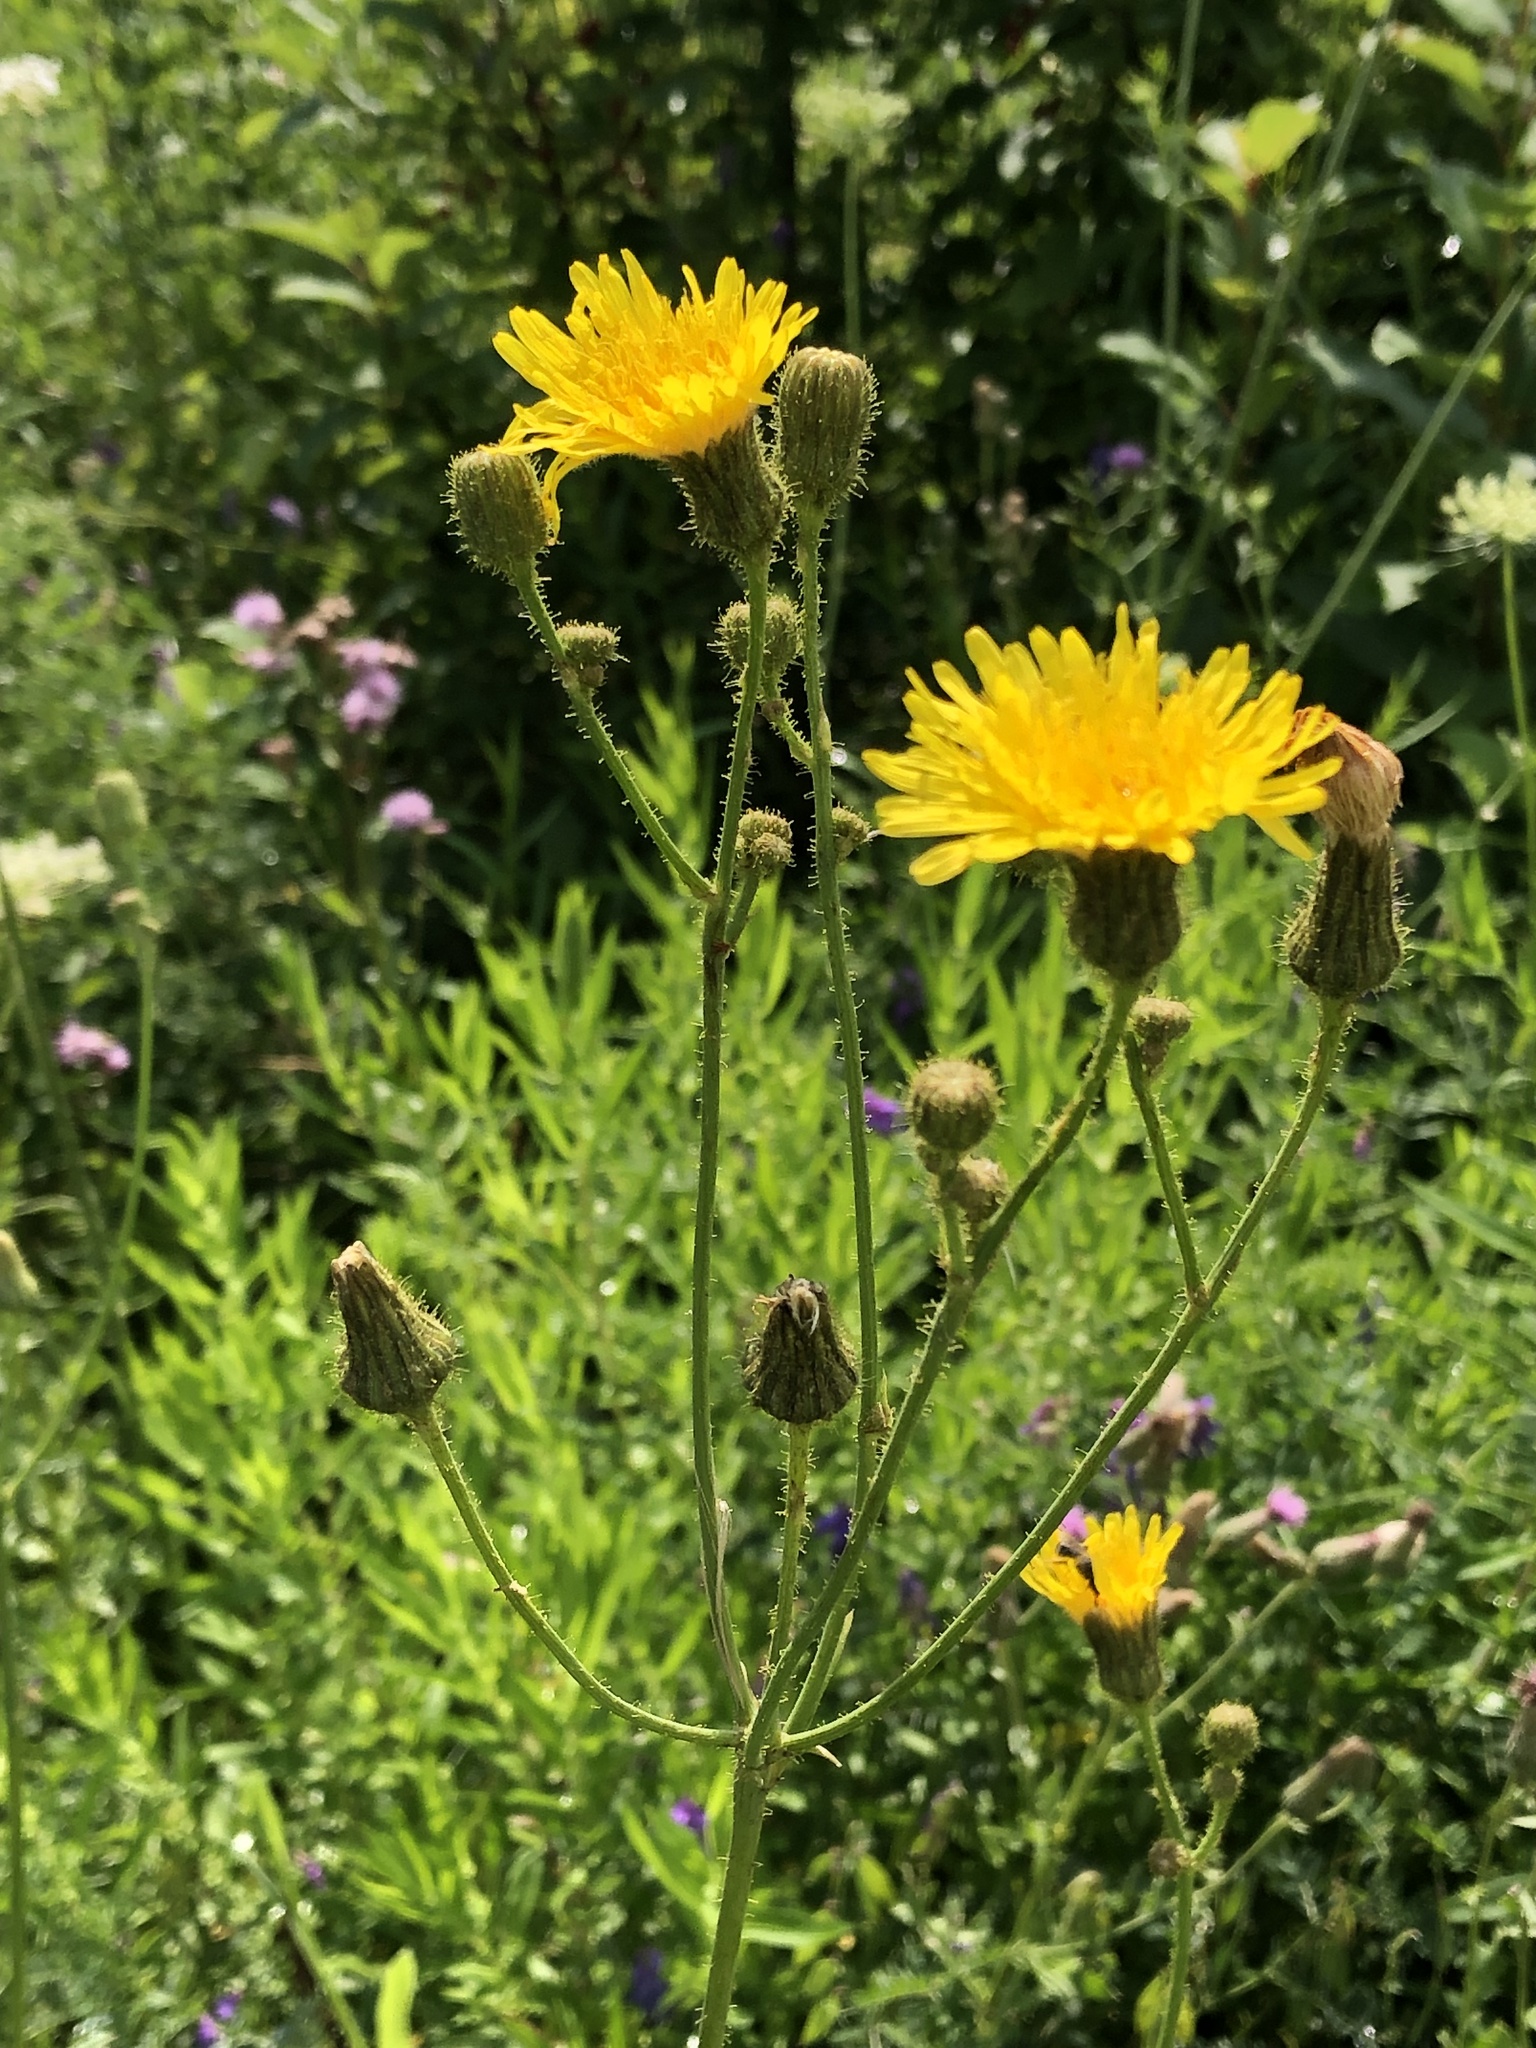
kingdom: Plantae
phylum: Tracheophyta
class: Magnoliopsida
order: Asterales
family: Asteraceae
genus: Sonchus
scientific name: Sonchus arvensis
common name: Perennial sow-thistle
